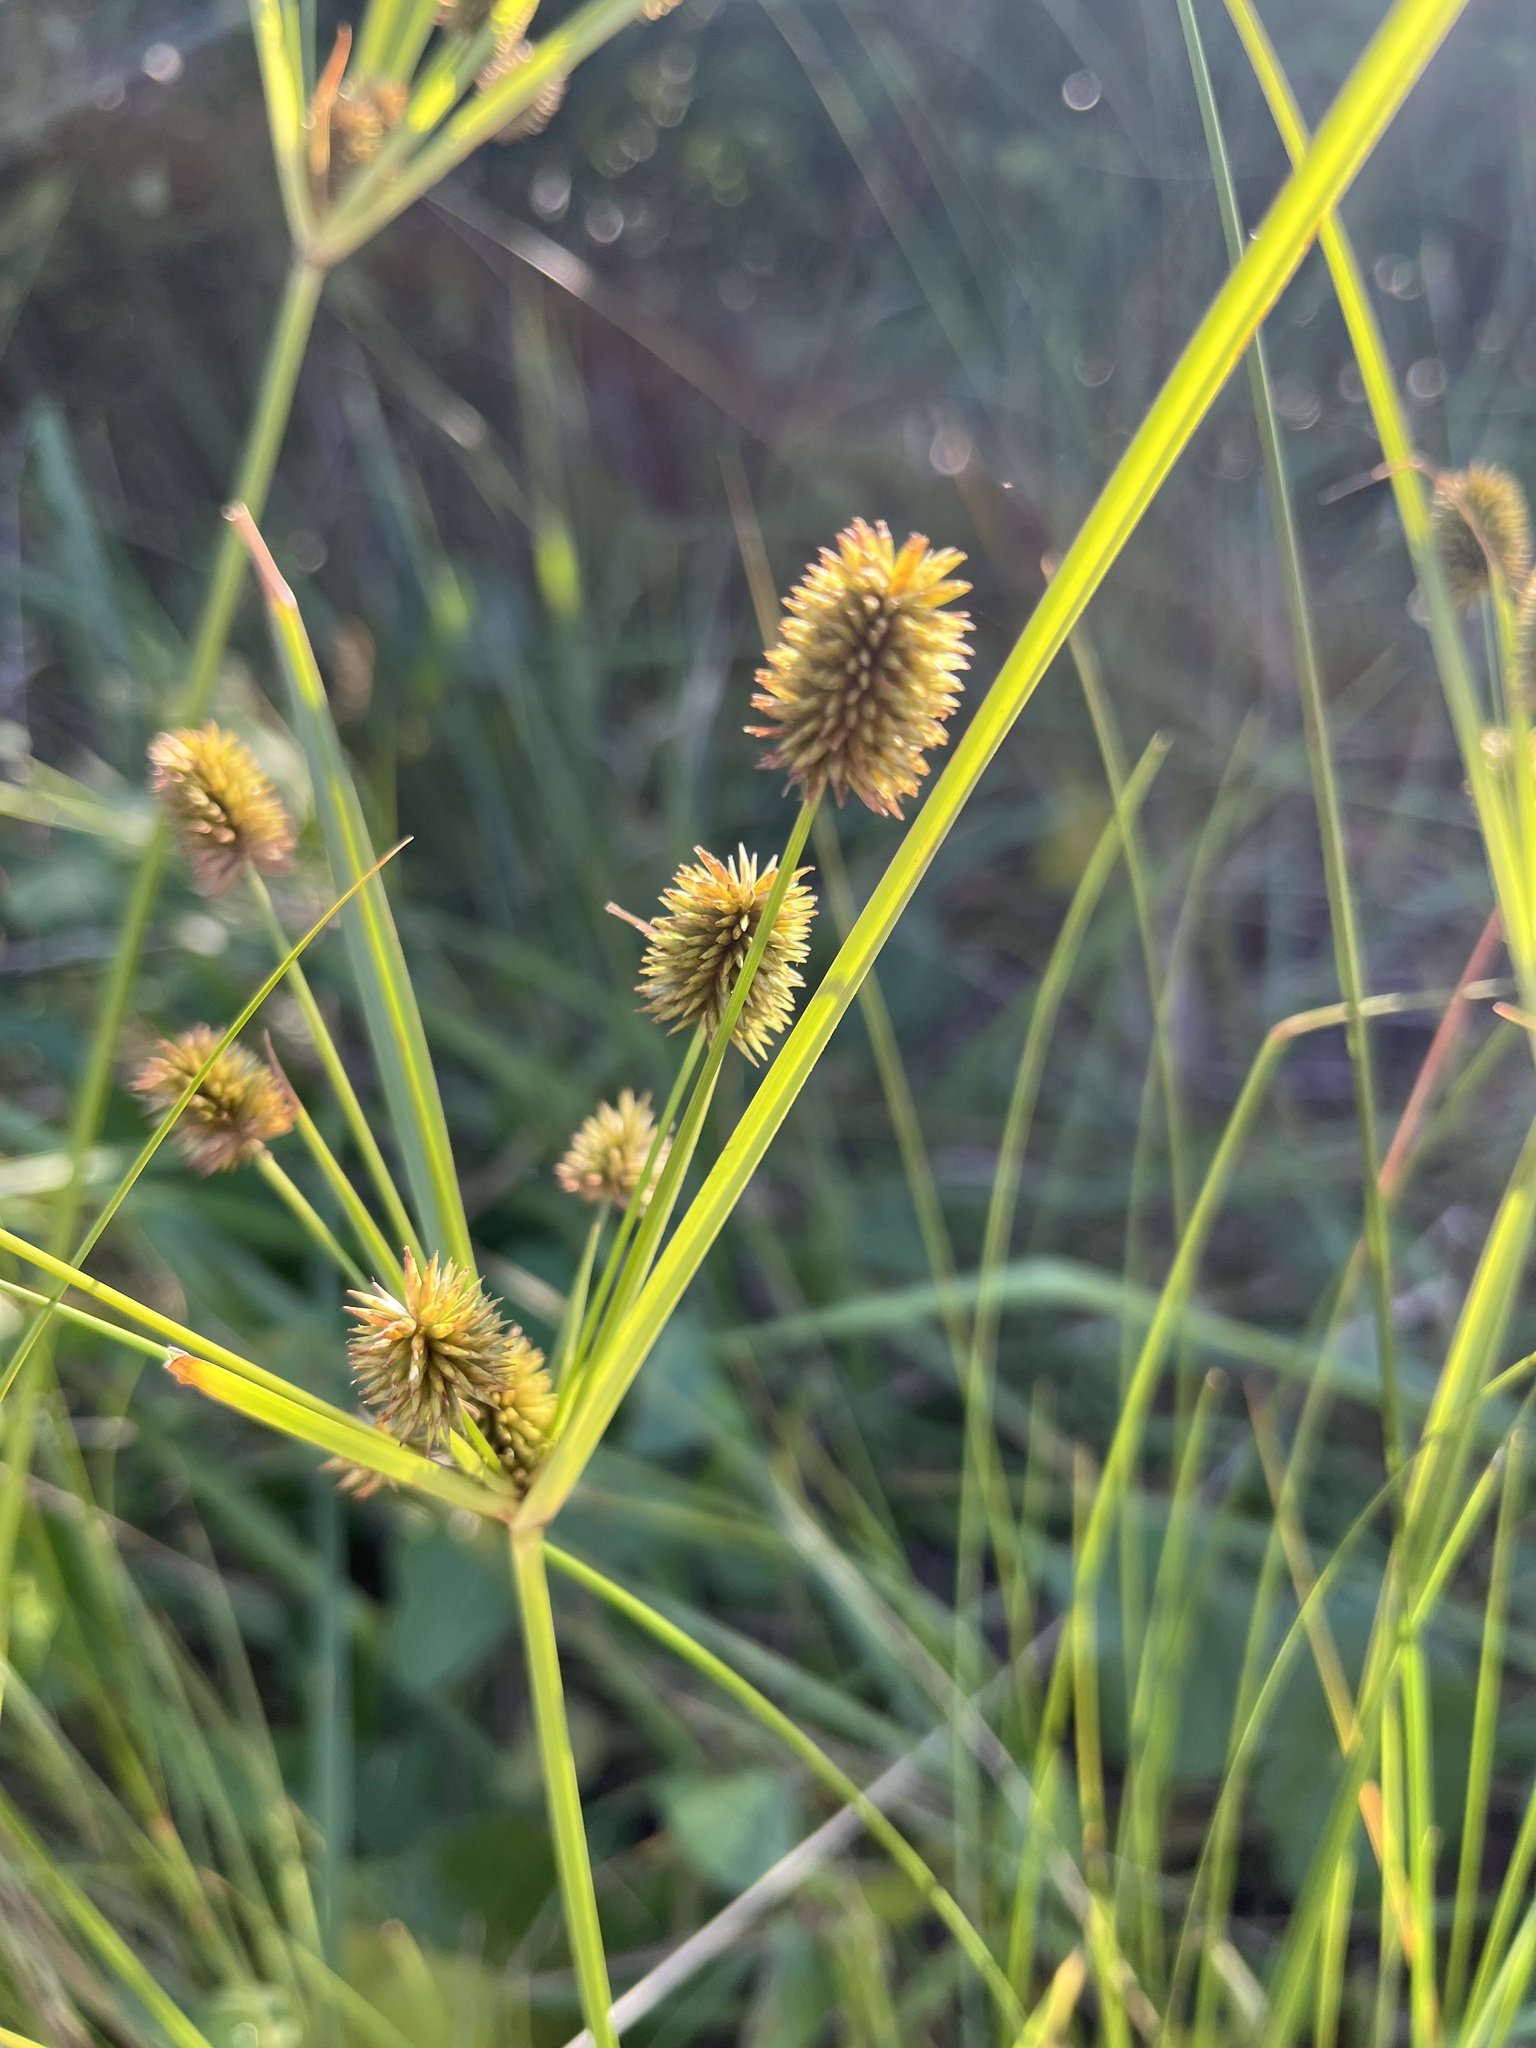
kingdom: Plantae
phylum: Tracheophyta
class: Liliopsida
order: Poales
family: Cyperaceae
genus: Cyperus
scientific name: Cyperus retrorsus
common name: Pinebarren flat sedge
